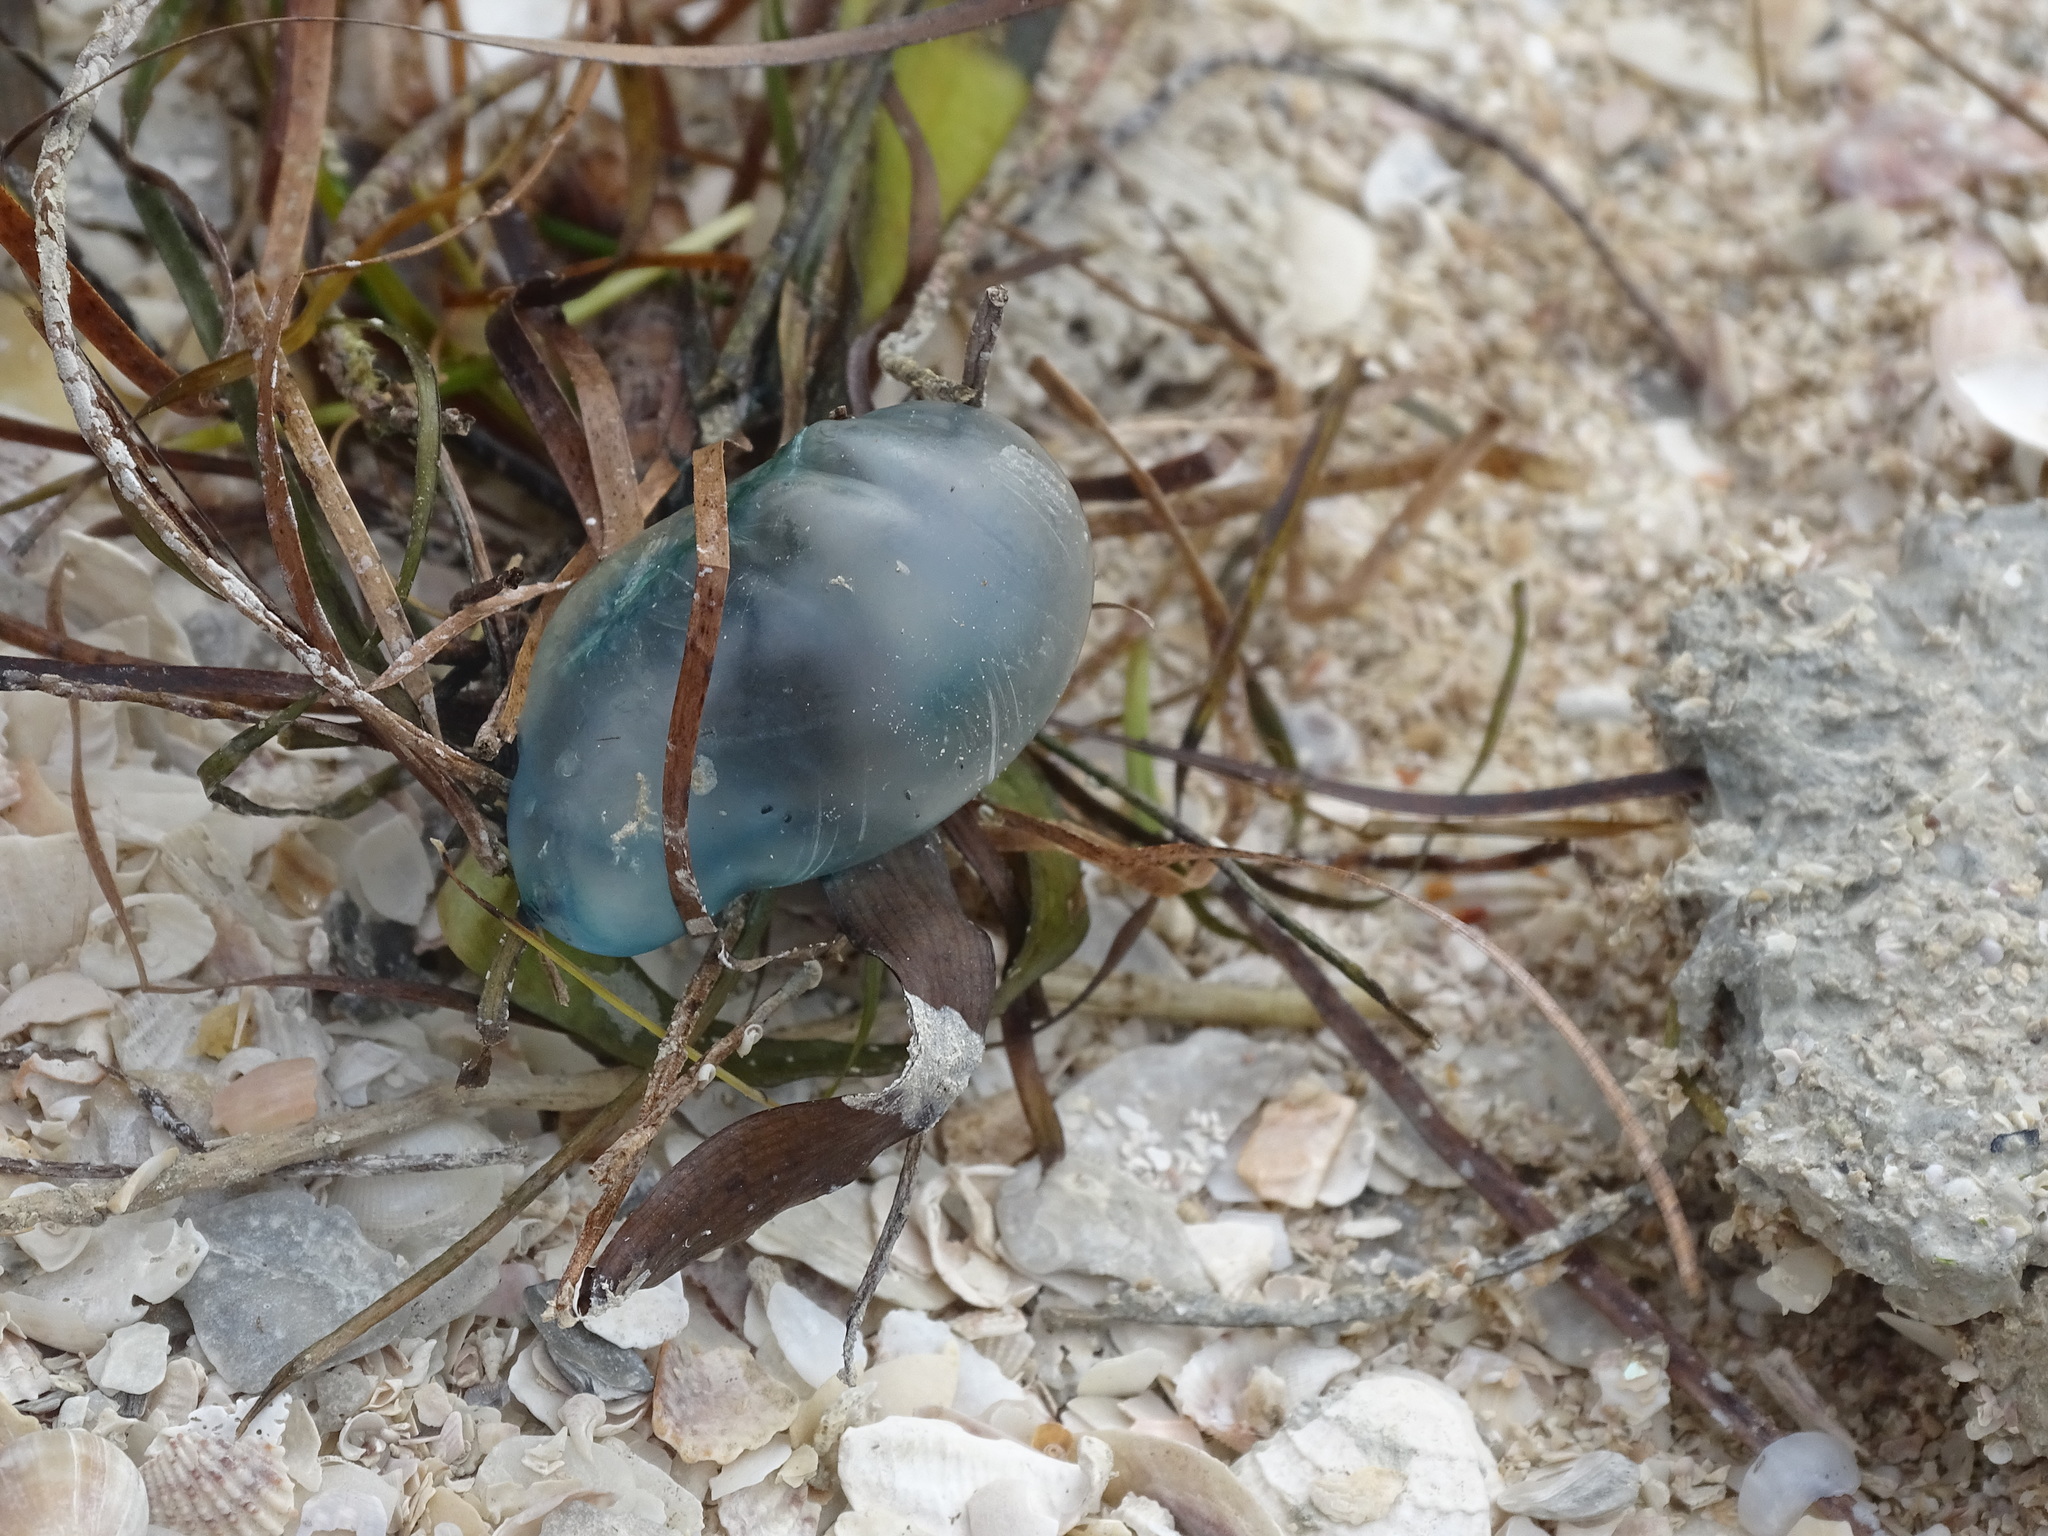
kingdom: Animalia
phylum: Cnidaria
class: Hydrozoa
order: Siphonophorae
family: Physaliidae
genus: Physalia
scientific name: Physalia physalis
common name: Portuguese man-of-war
